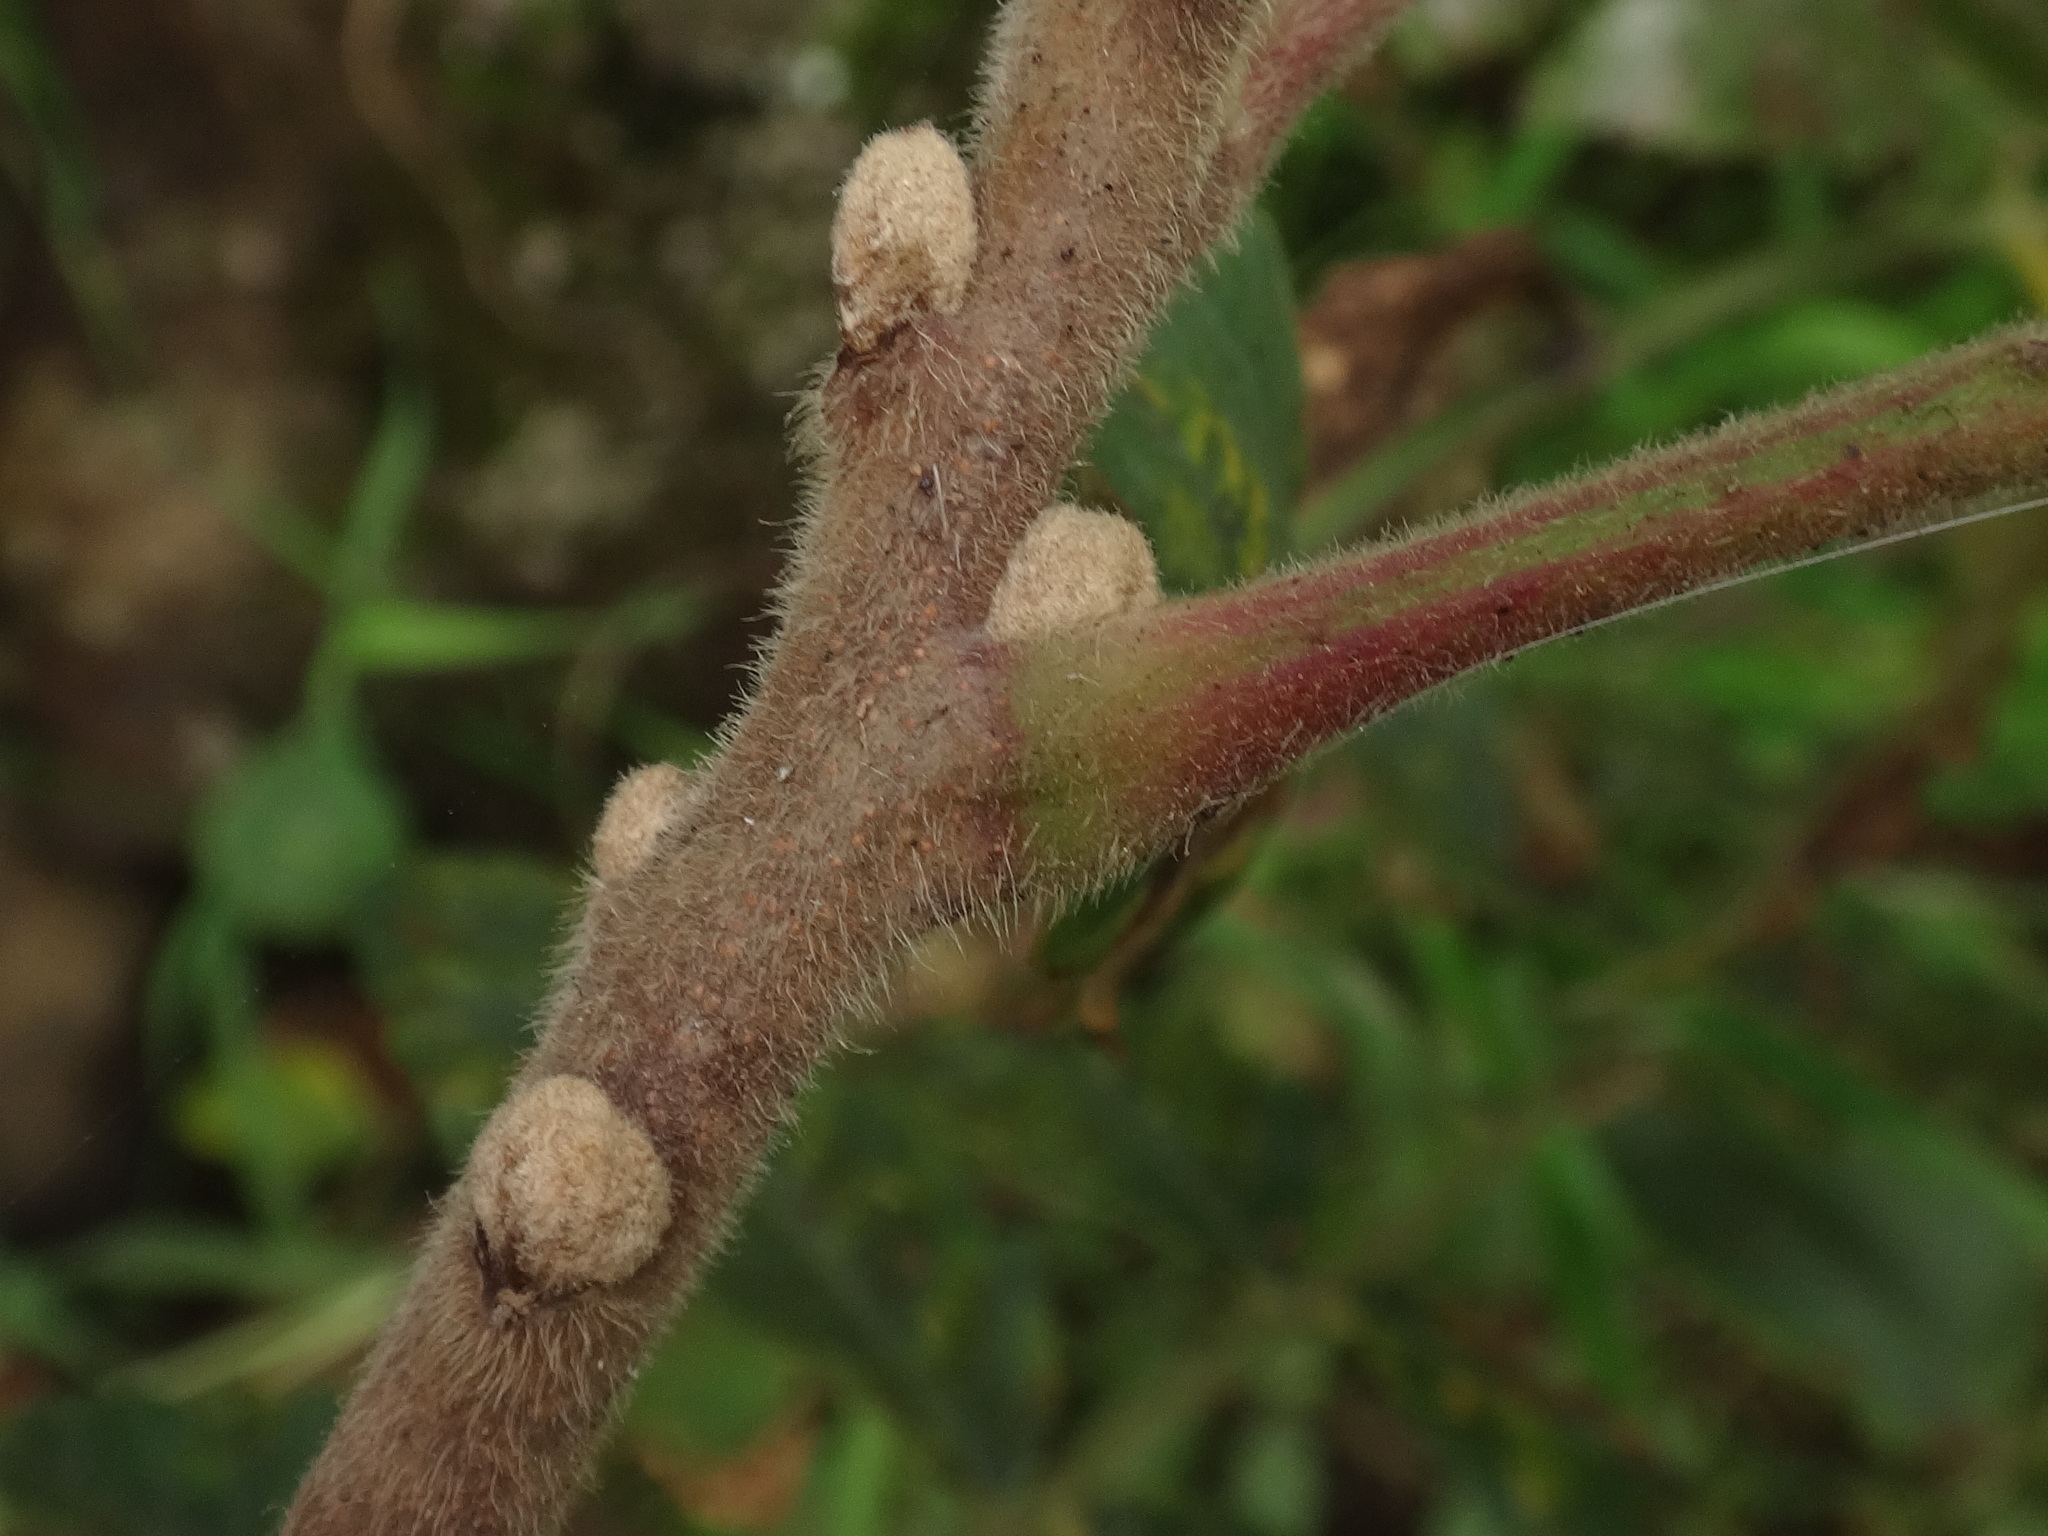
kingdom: Plantae
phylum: Tracheophyta
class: Magnoliopsida
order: Sapindales
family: Anacardiaceae
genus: Rhus
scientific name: Rhus coriaria
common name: Tanner's sumach
